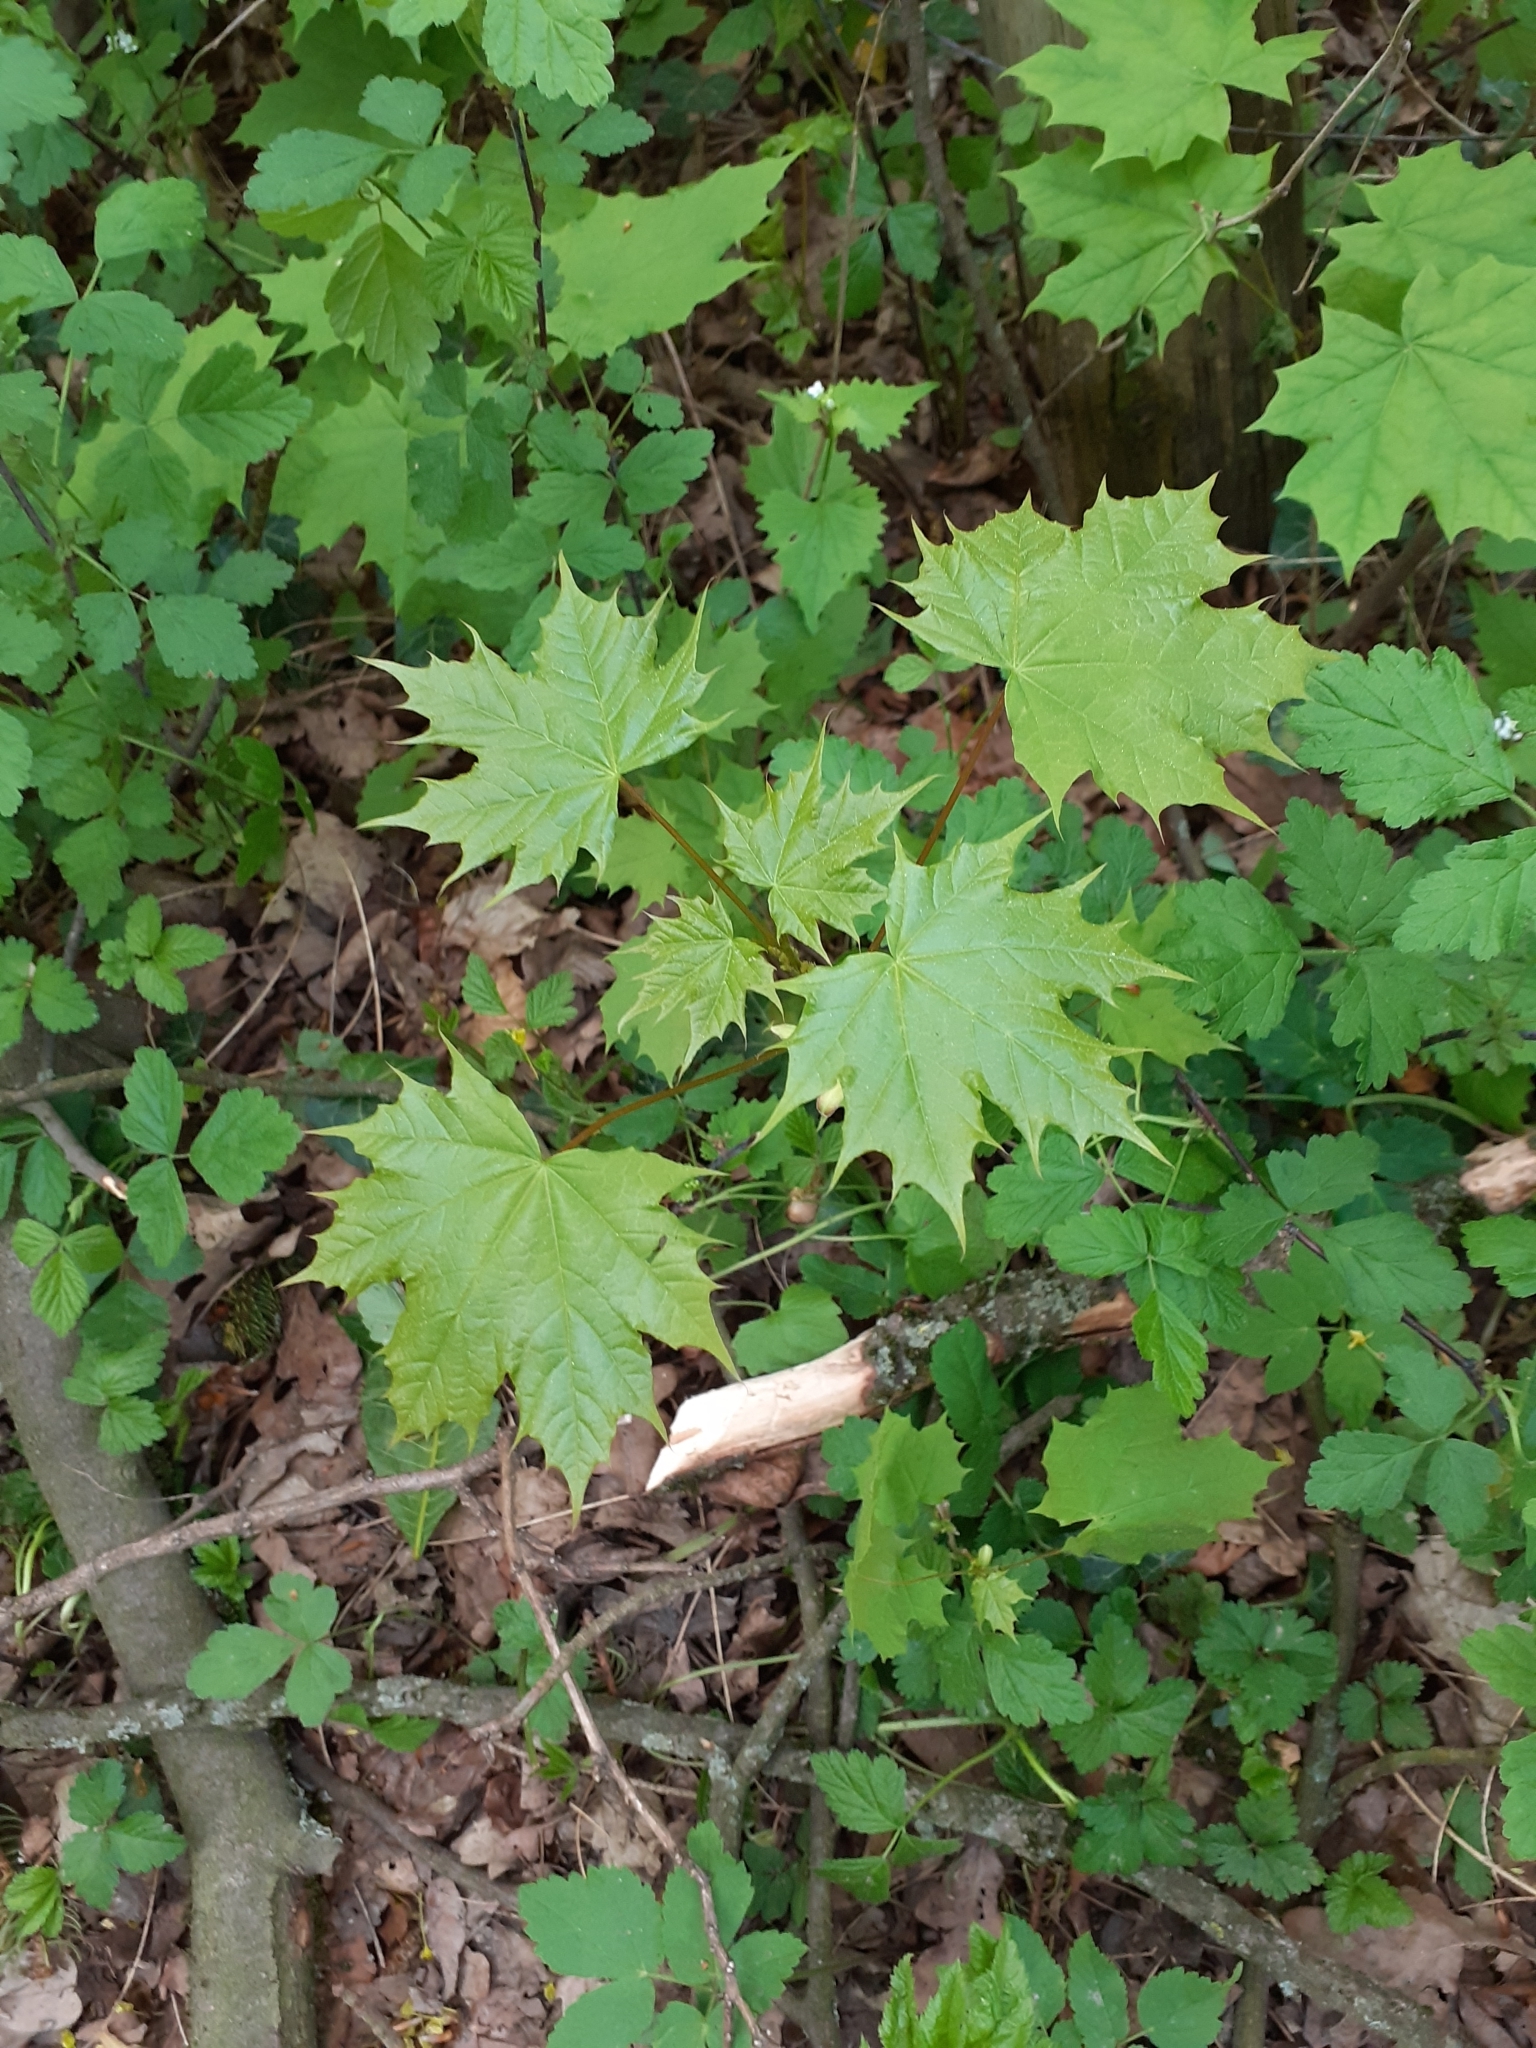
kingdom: Plantae
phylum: Tracheophyta
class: Magnoliopsida
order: Sapindales
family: Sapindaceae
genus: Acer
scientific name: Acer platanoides
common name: Norway maple
